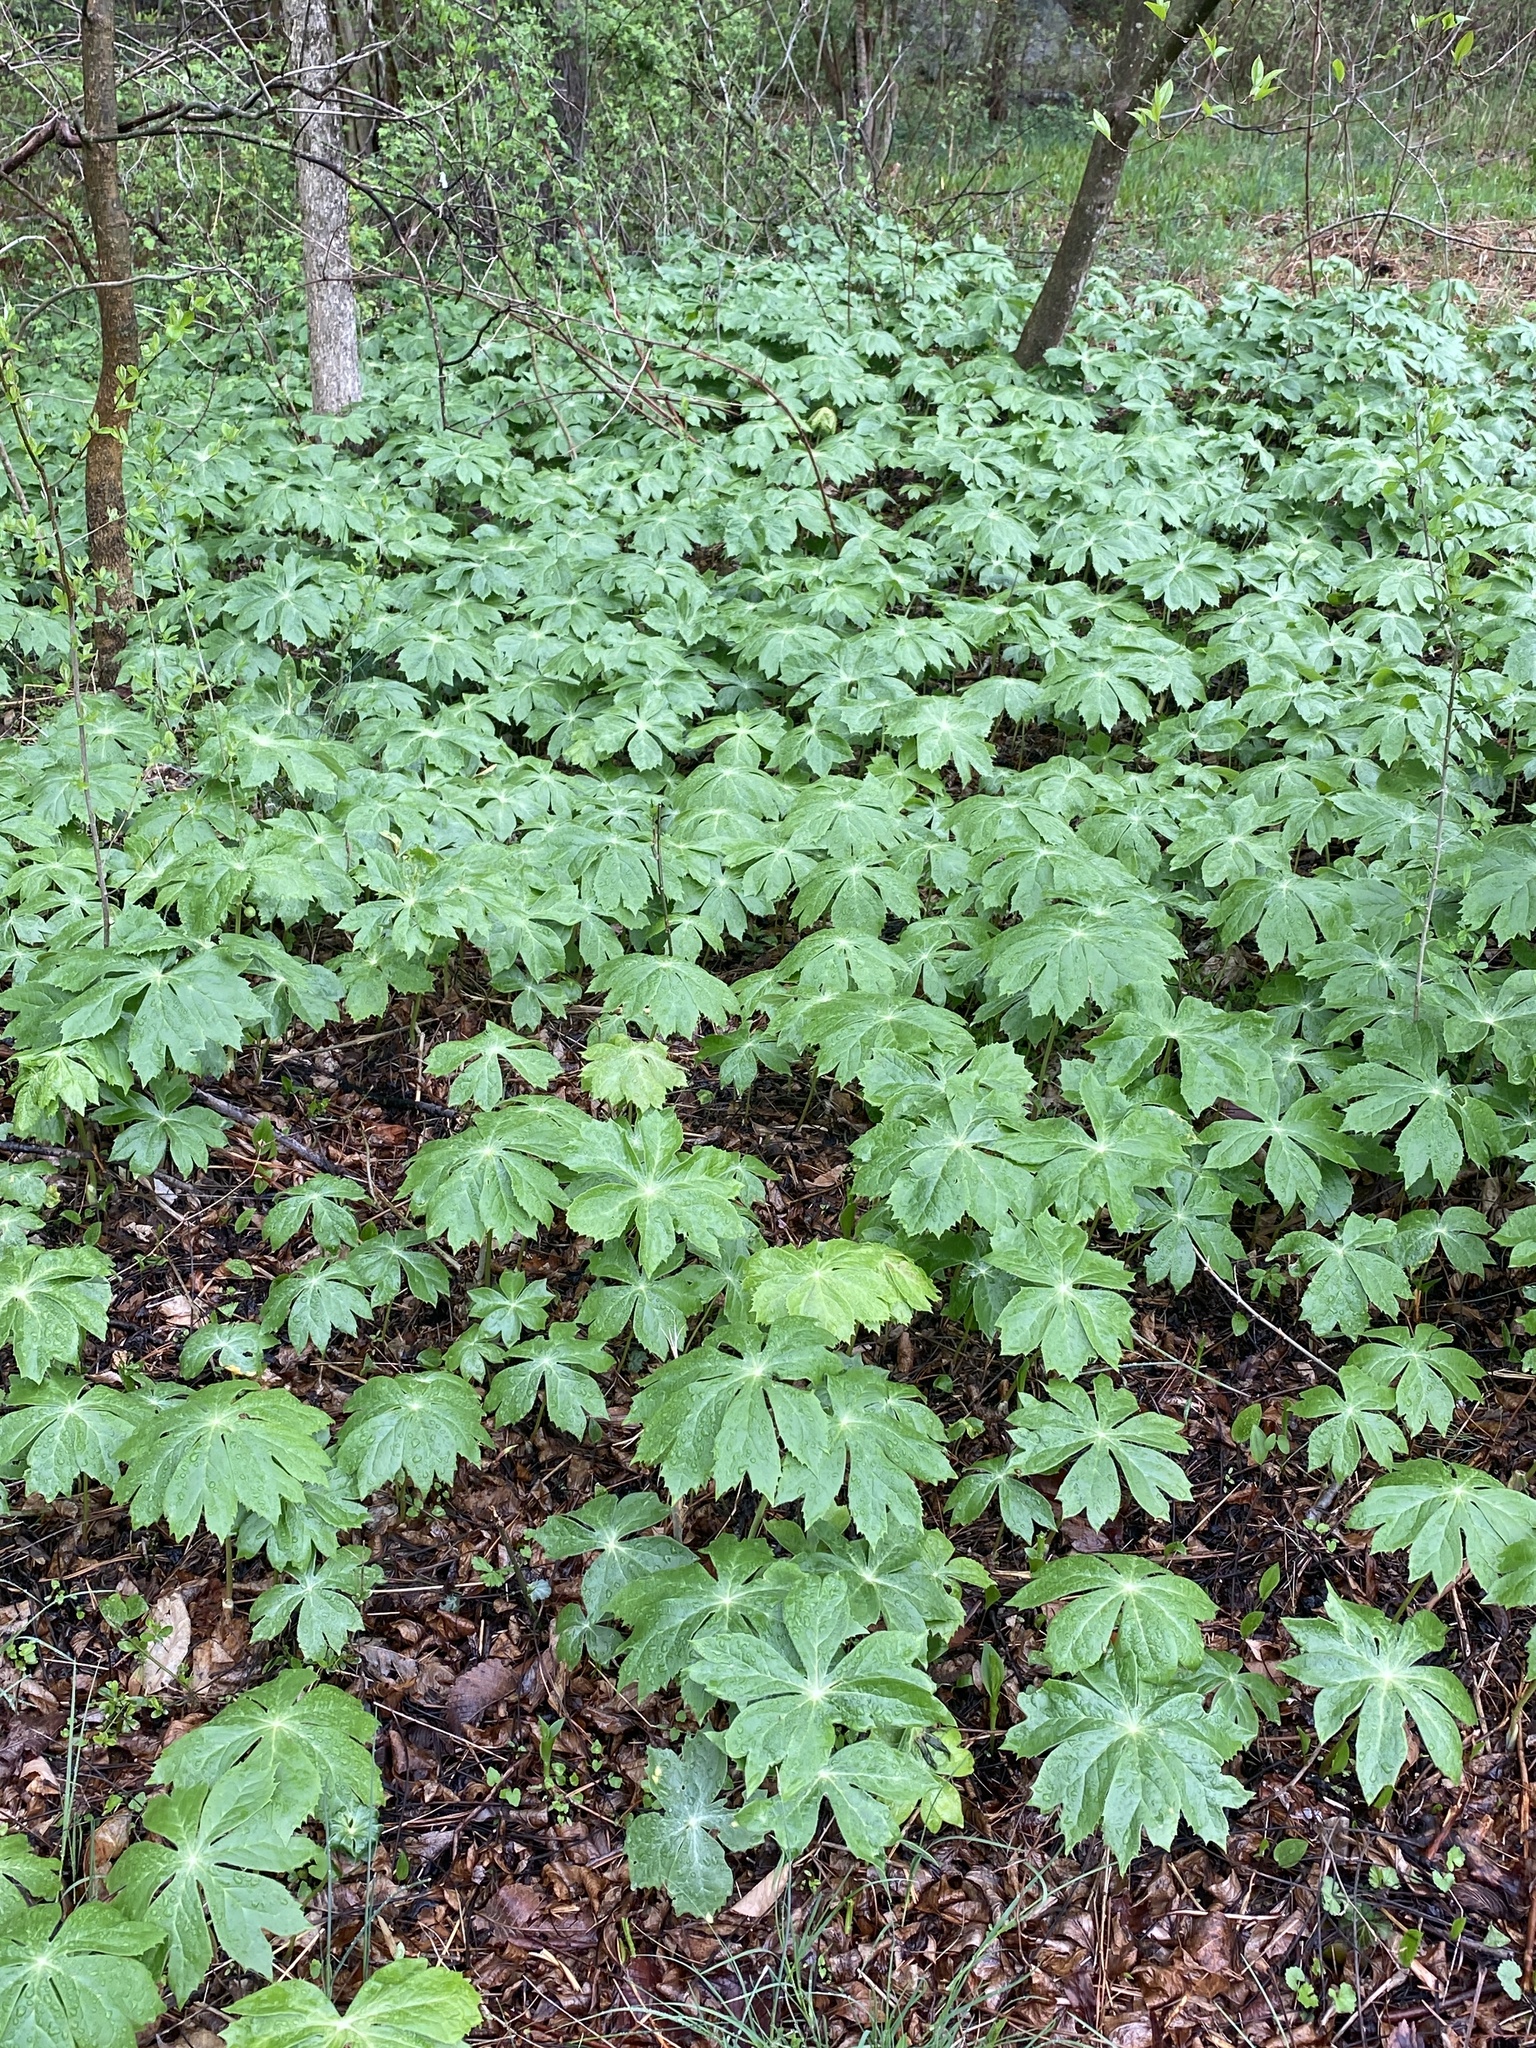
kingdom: Plantae
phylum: Tracheophyta
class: Magnoliopsida
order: Ranunculales
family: Berberidaceae
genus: Podophyllum
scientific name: Podophyllum peltatum
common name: Wild mandrake
